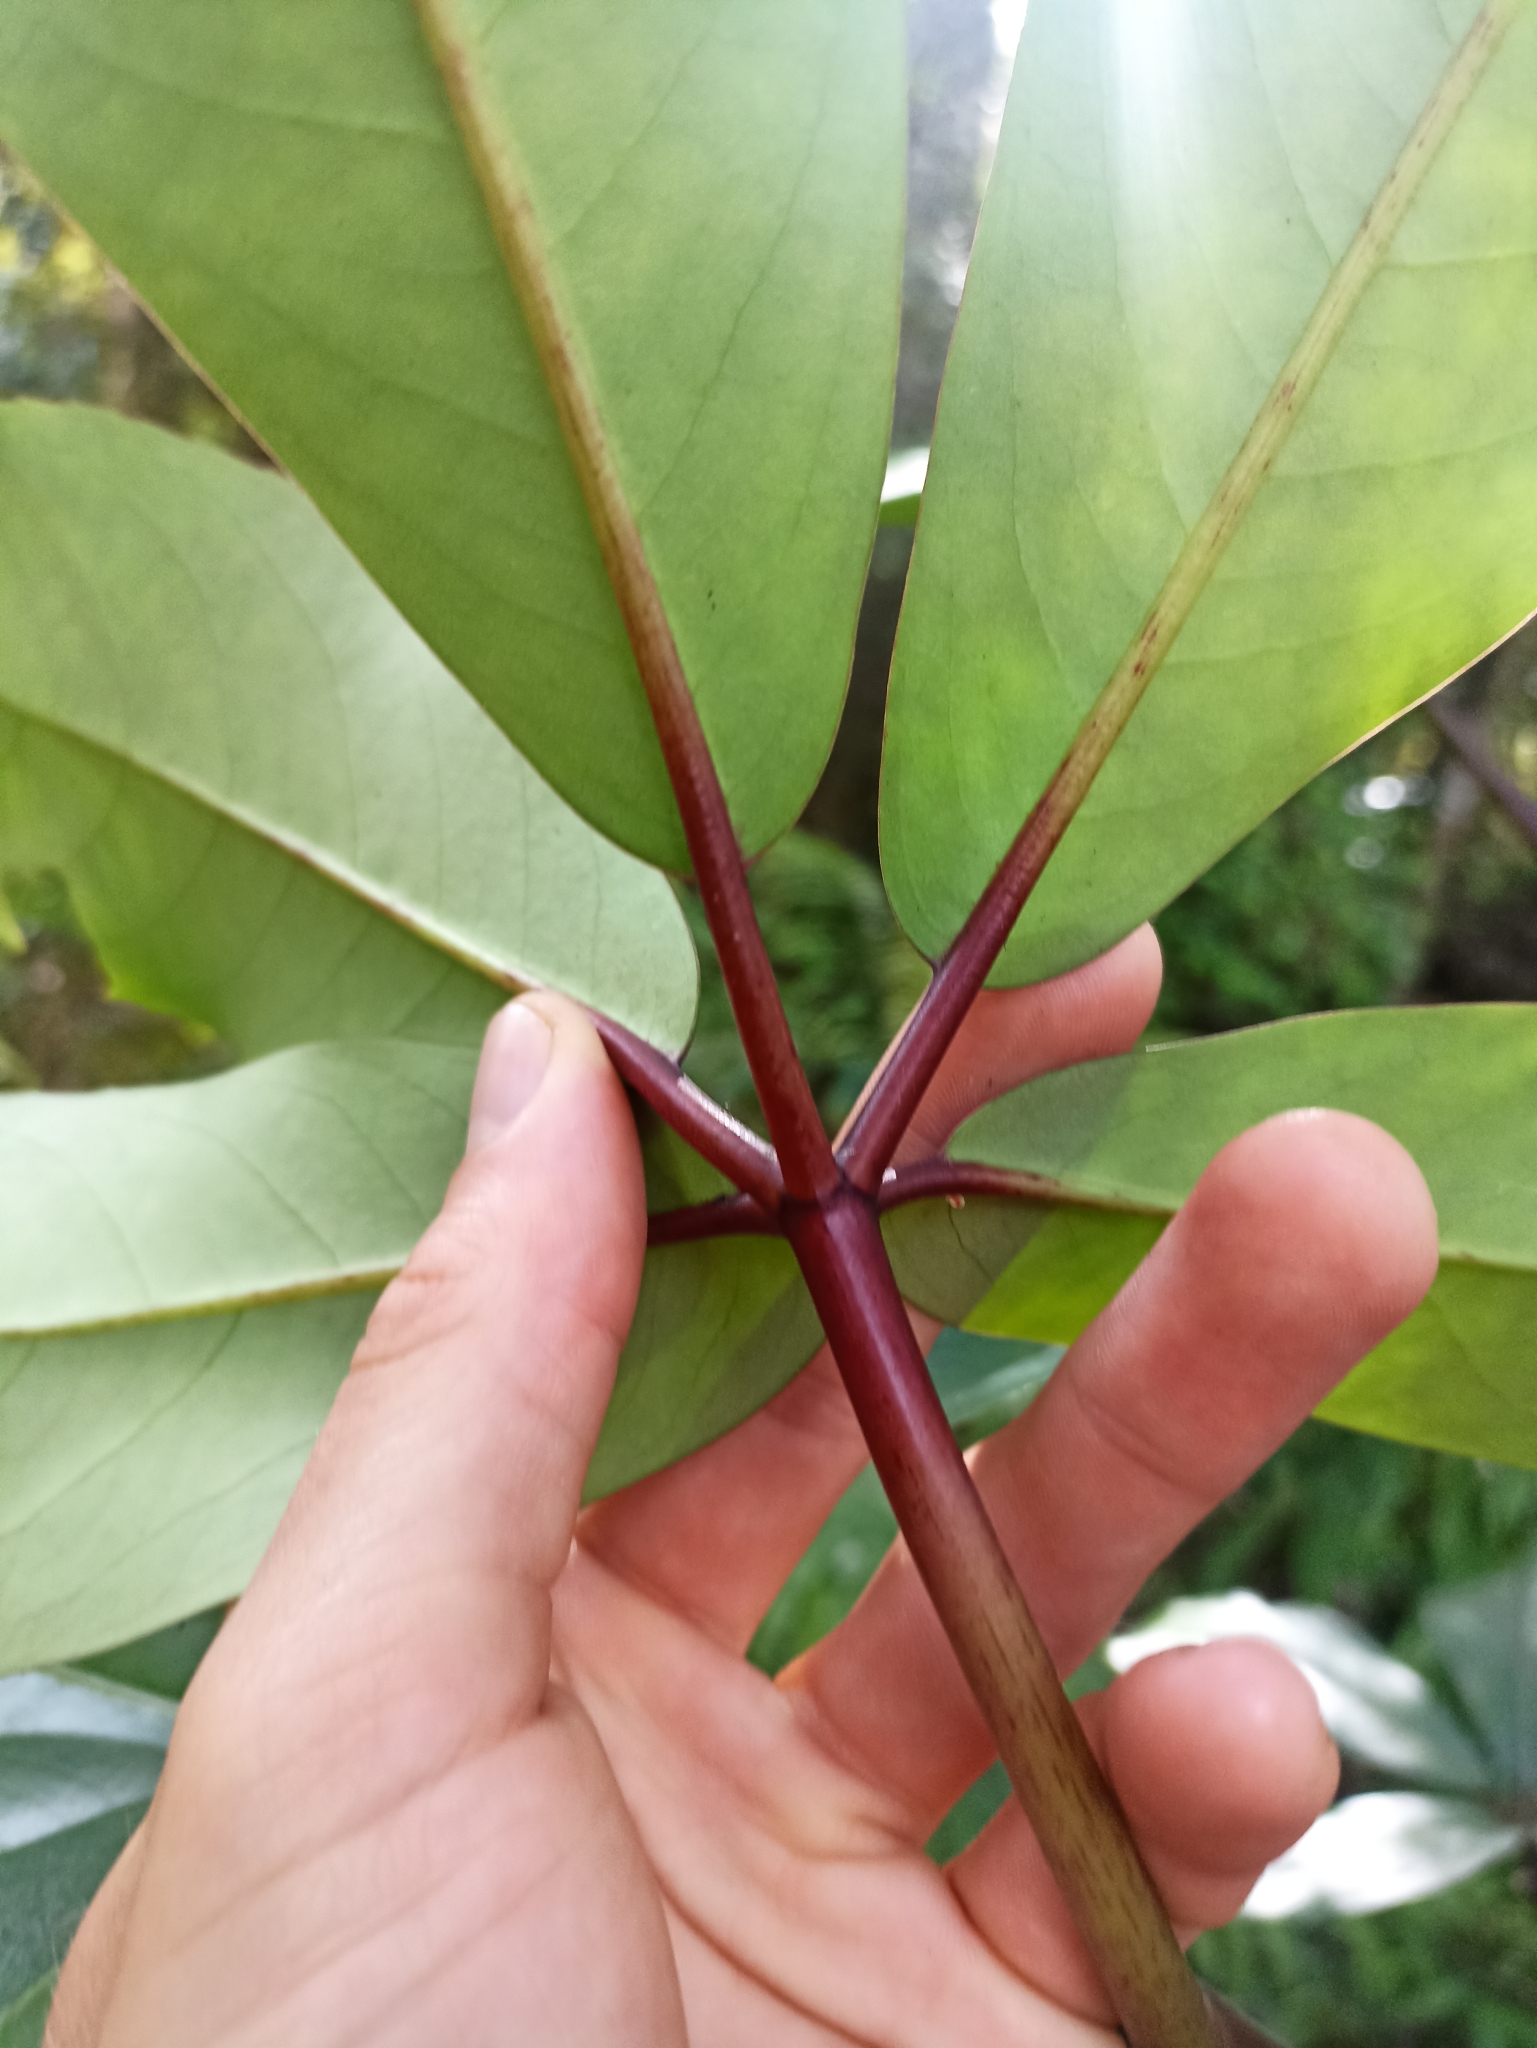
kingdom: Plantae
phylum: Tracheophyta
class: Magnoliopsida
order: Apiales
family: Araliaceae
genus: Neopanax
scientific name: Neopanax laetus
